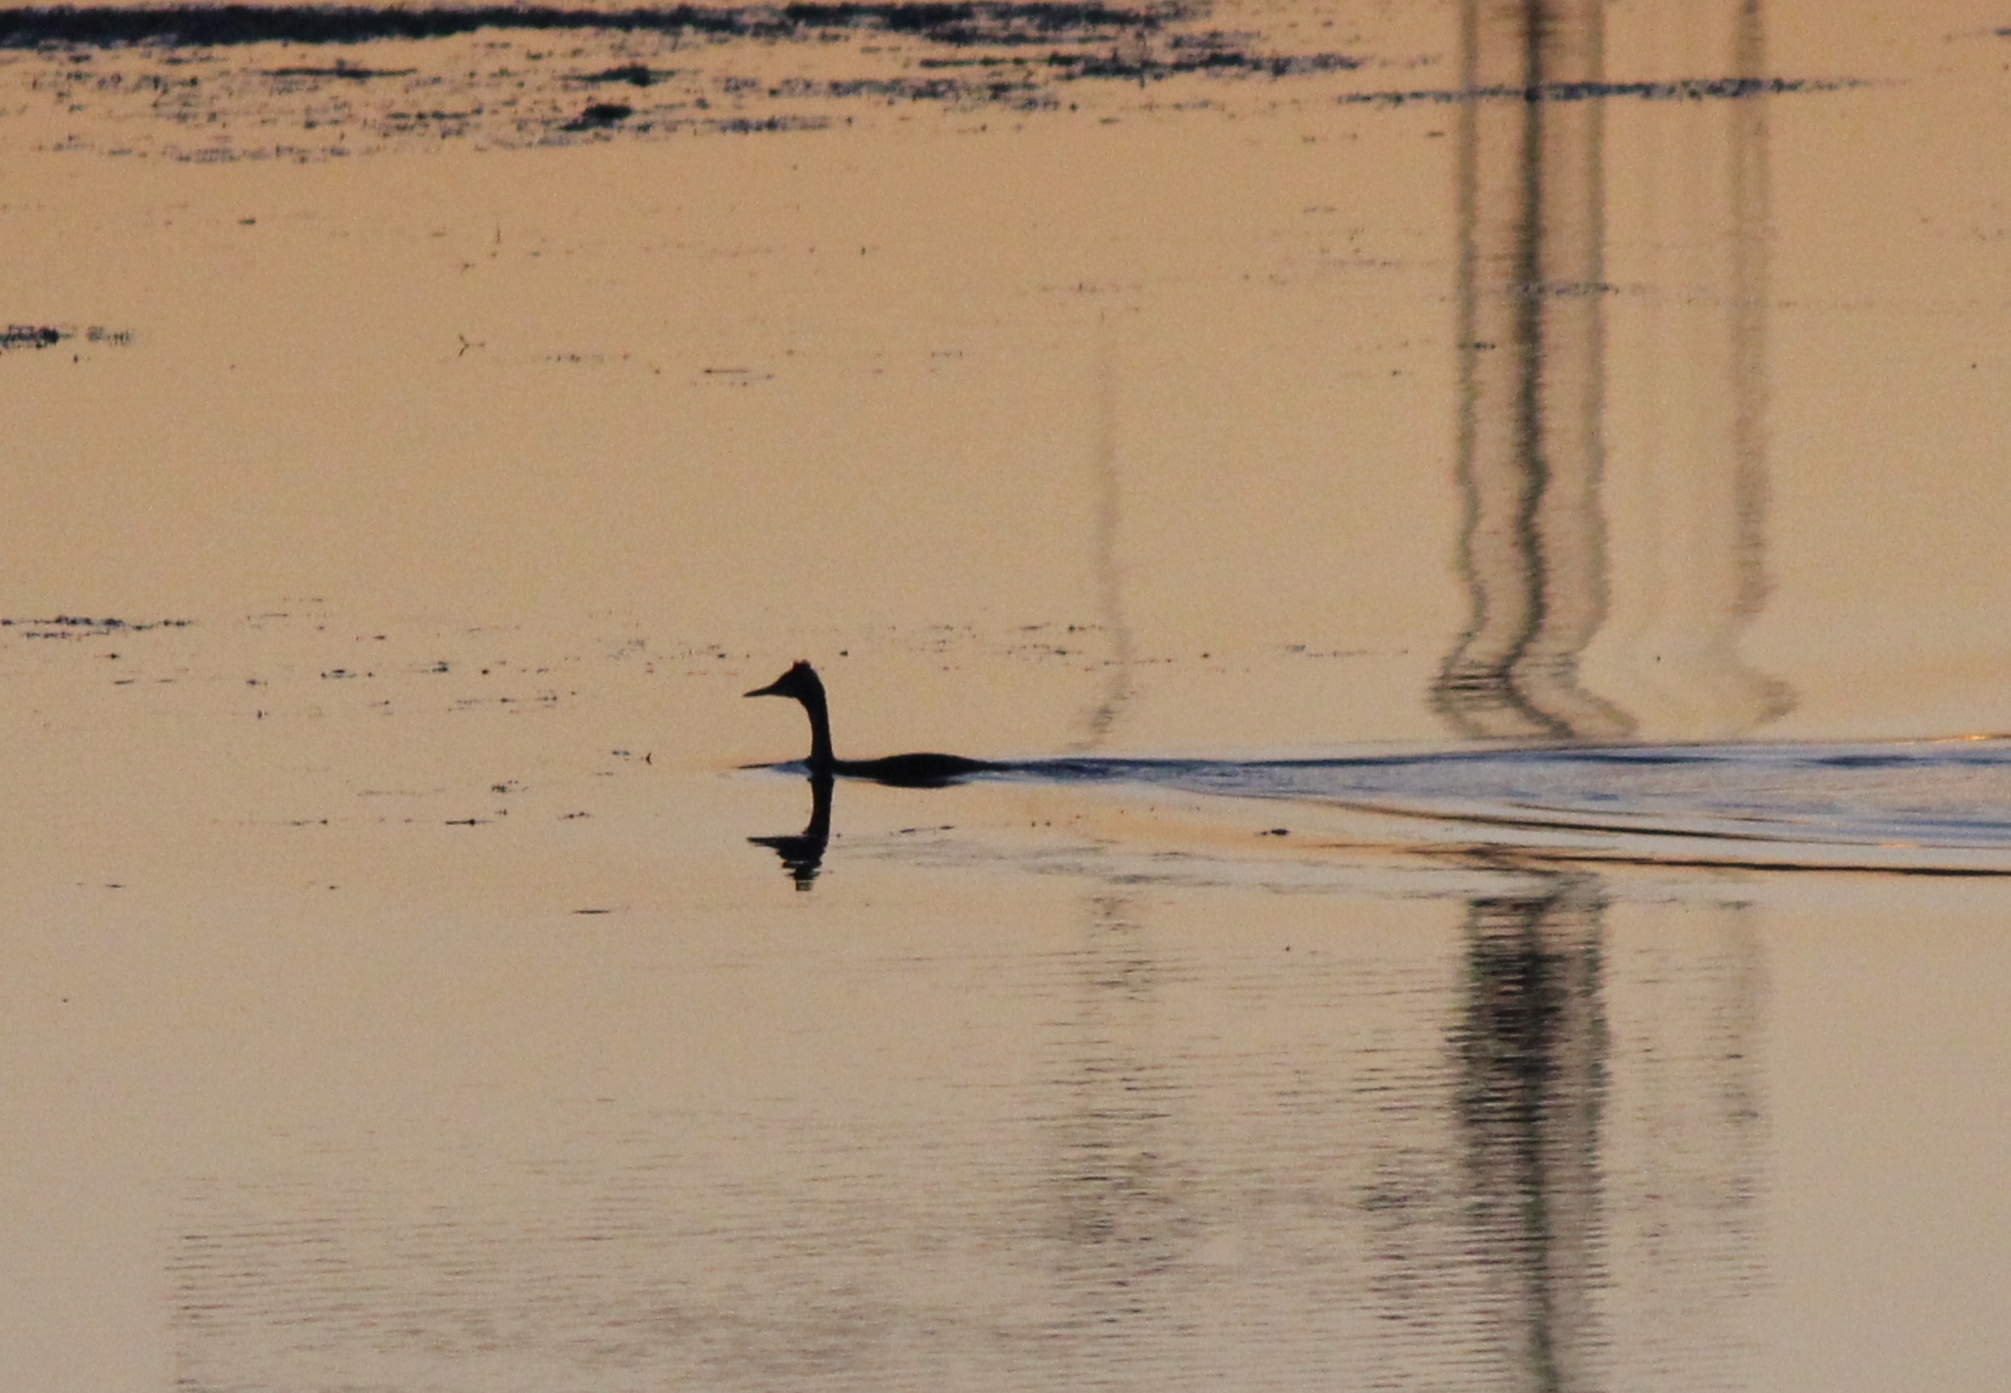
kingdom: Animalia
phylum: Chordata
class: Aves
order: Podicipediformes
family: Podicipedidae
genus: Podiceps
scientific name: Podiceps cristatus
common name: Great crested grebe
